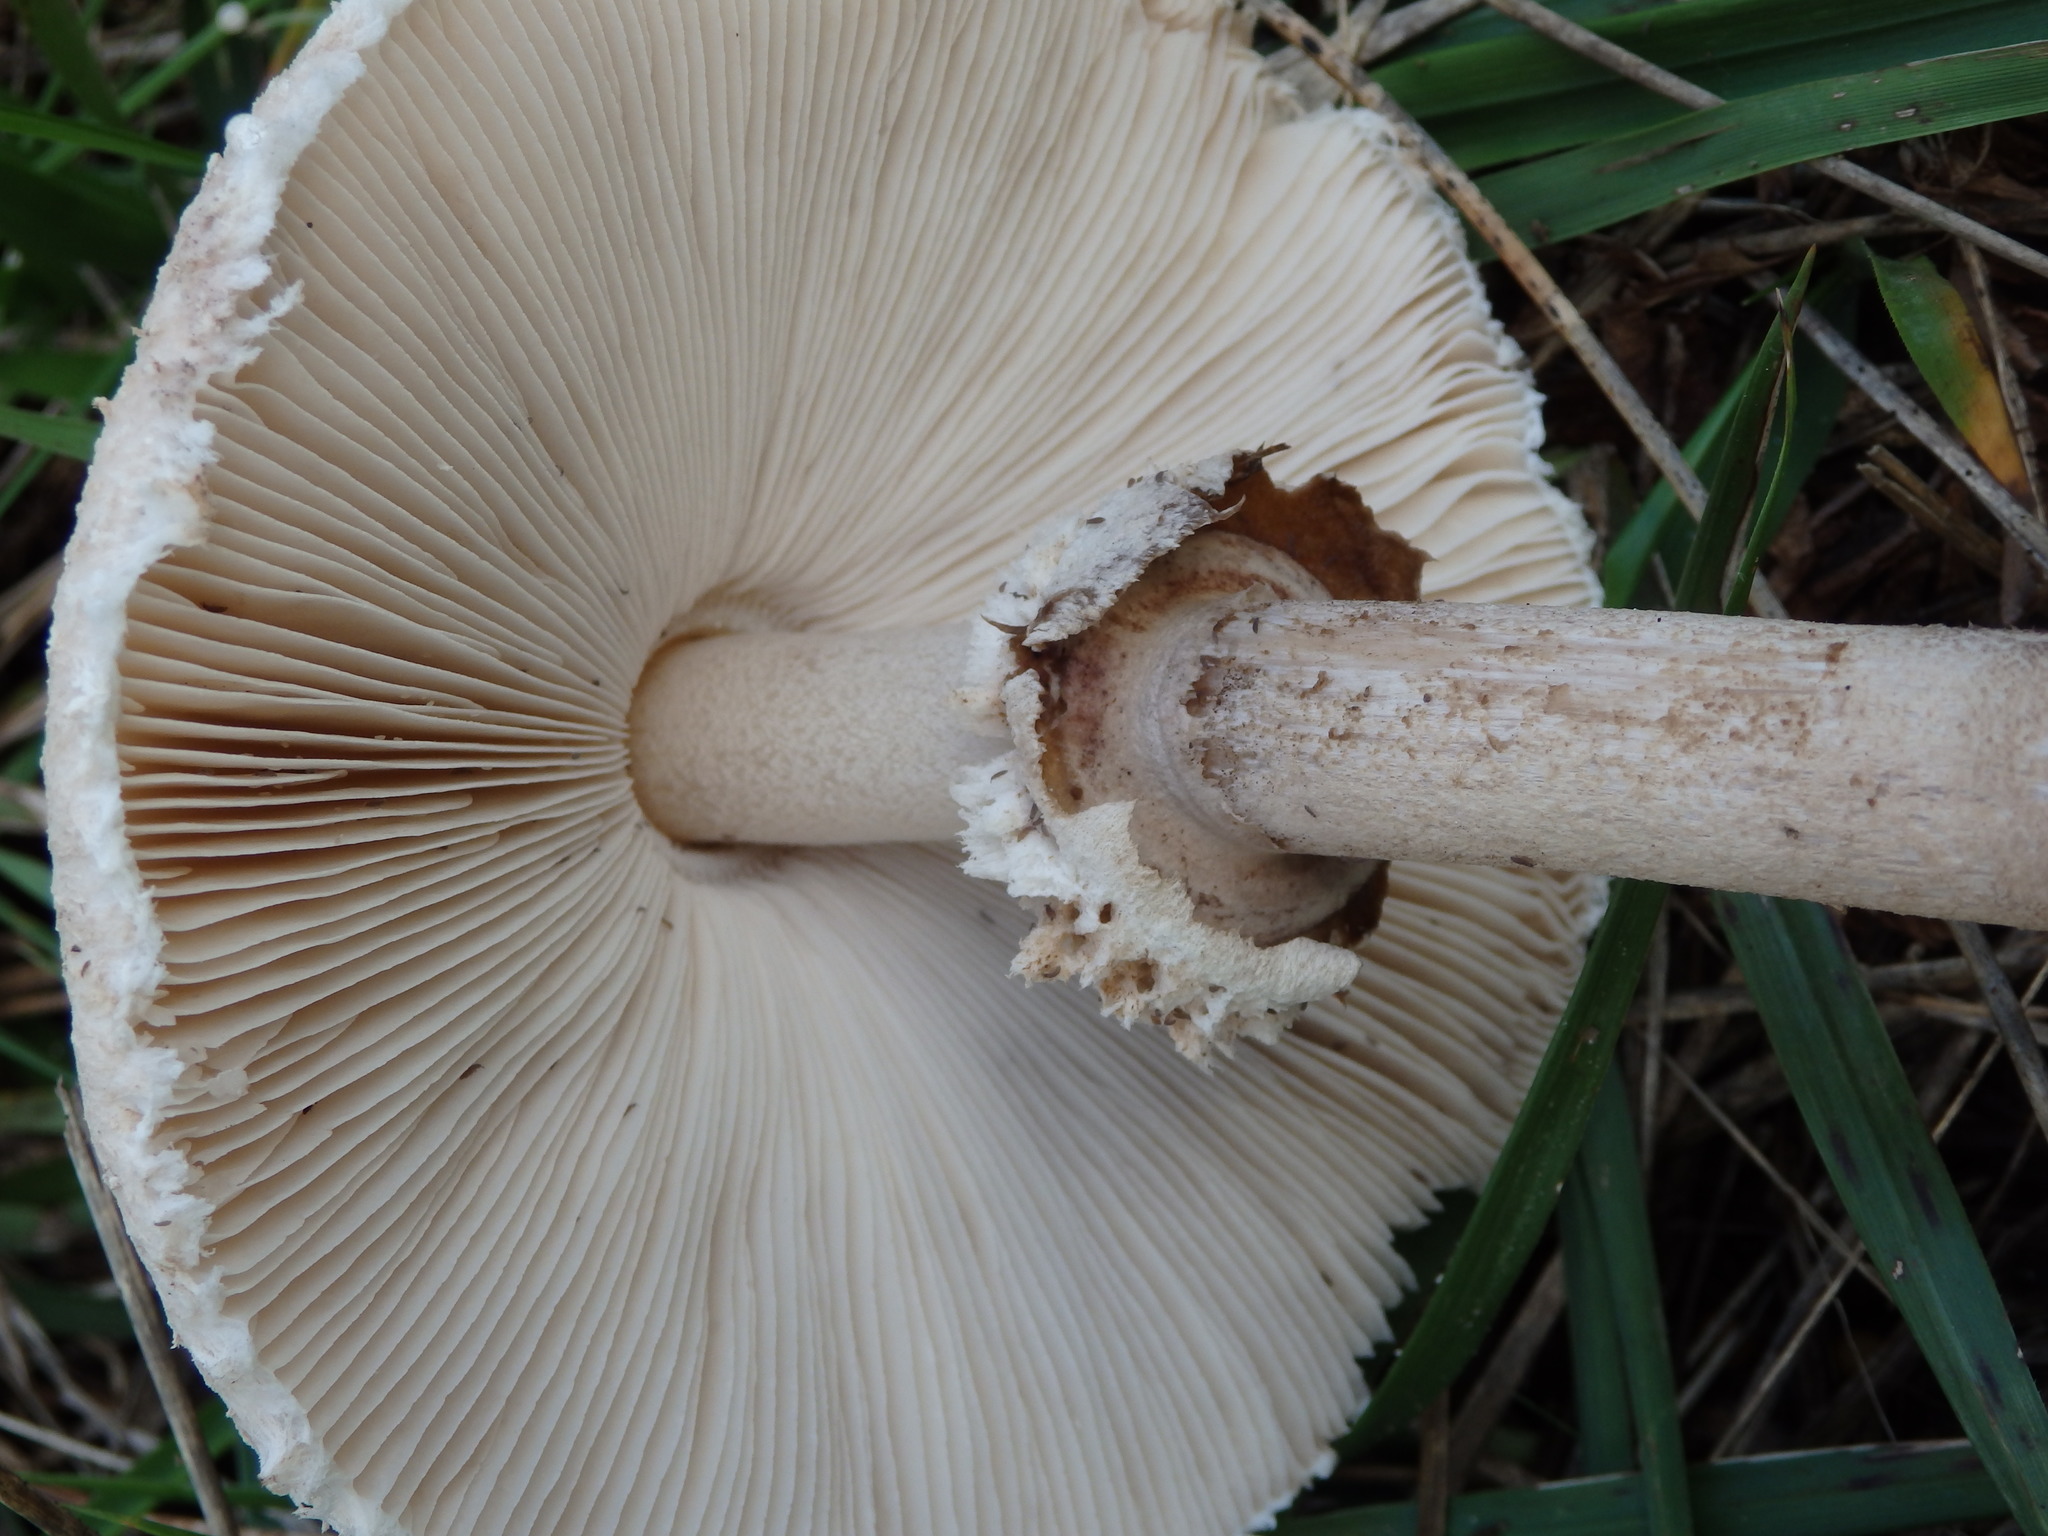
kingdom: Fungi
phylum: Basidiomycota
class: Agaricomycetes
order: Agaricales
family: Agaricaceae
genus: Macrolepiota
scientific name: Macrolepiota procera
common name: Parasol
